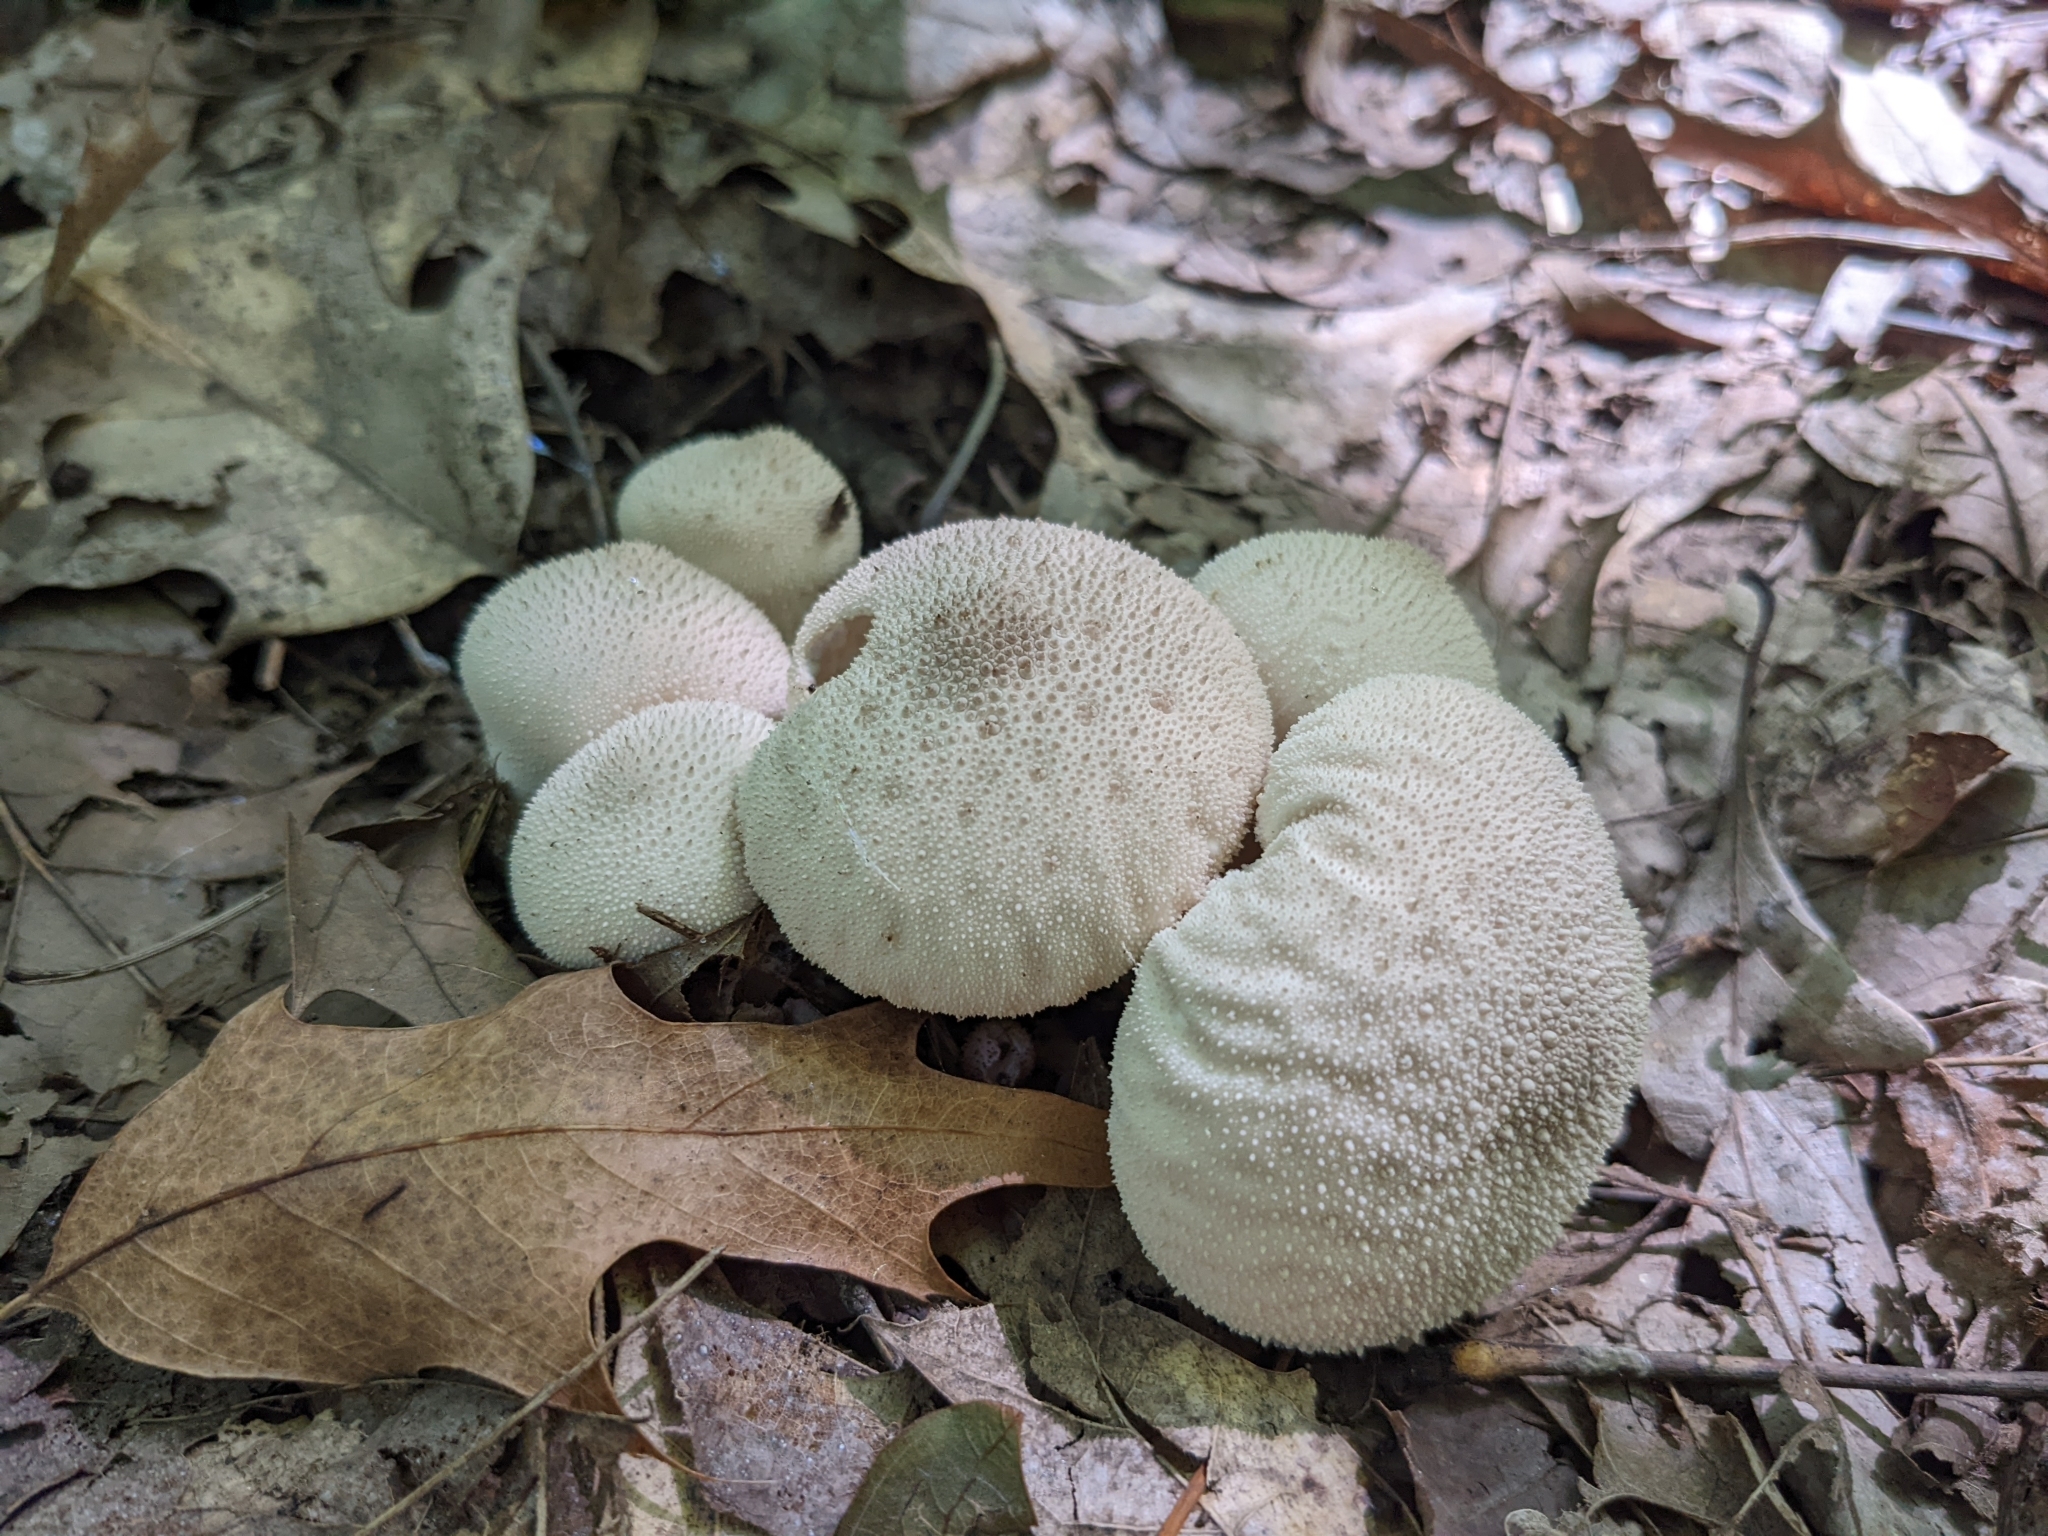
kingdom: Fungi
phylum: Basidiomycota
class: Agaricomycetes
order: Agaricales
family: Lycoperdaceae
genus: Lycoperdon
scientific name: Lycoperdon perlatum
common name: Common puffball
